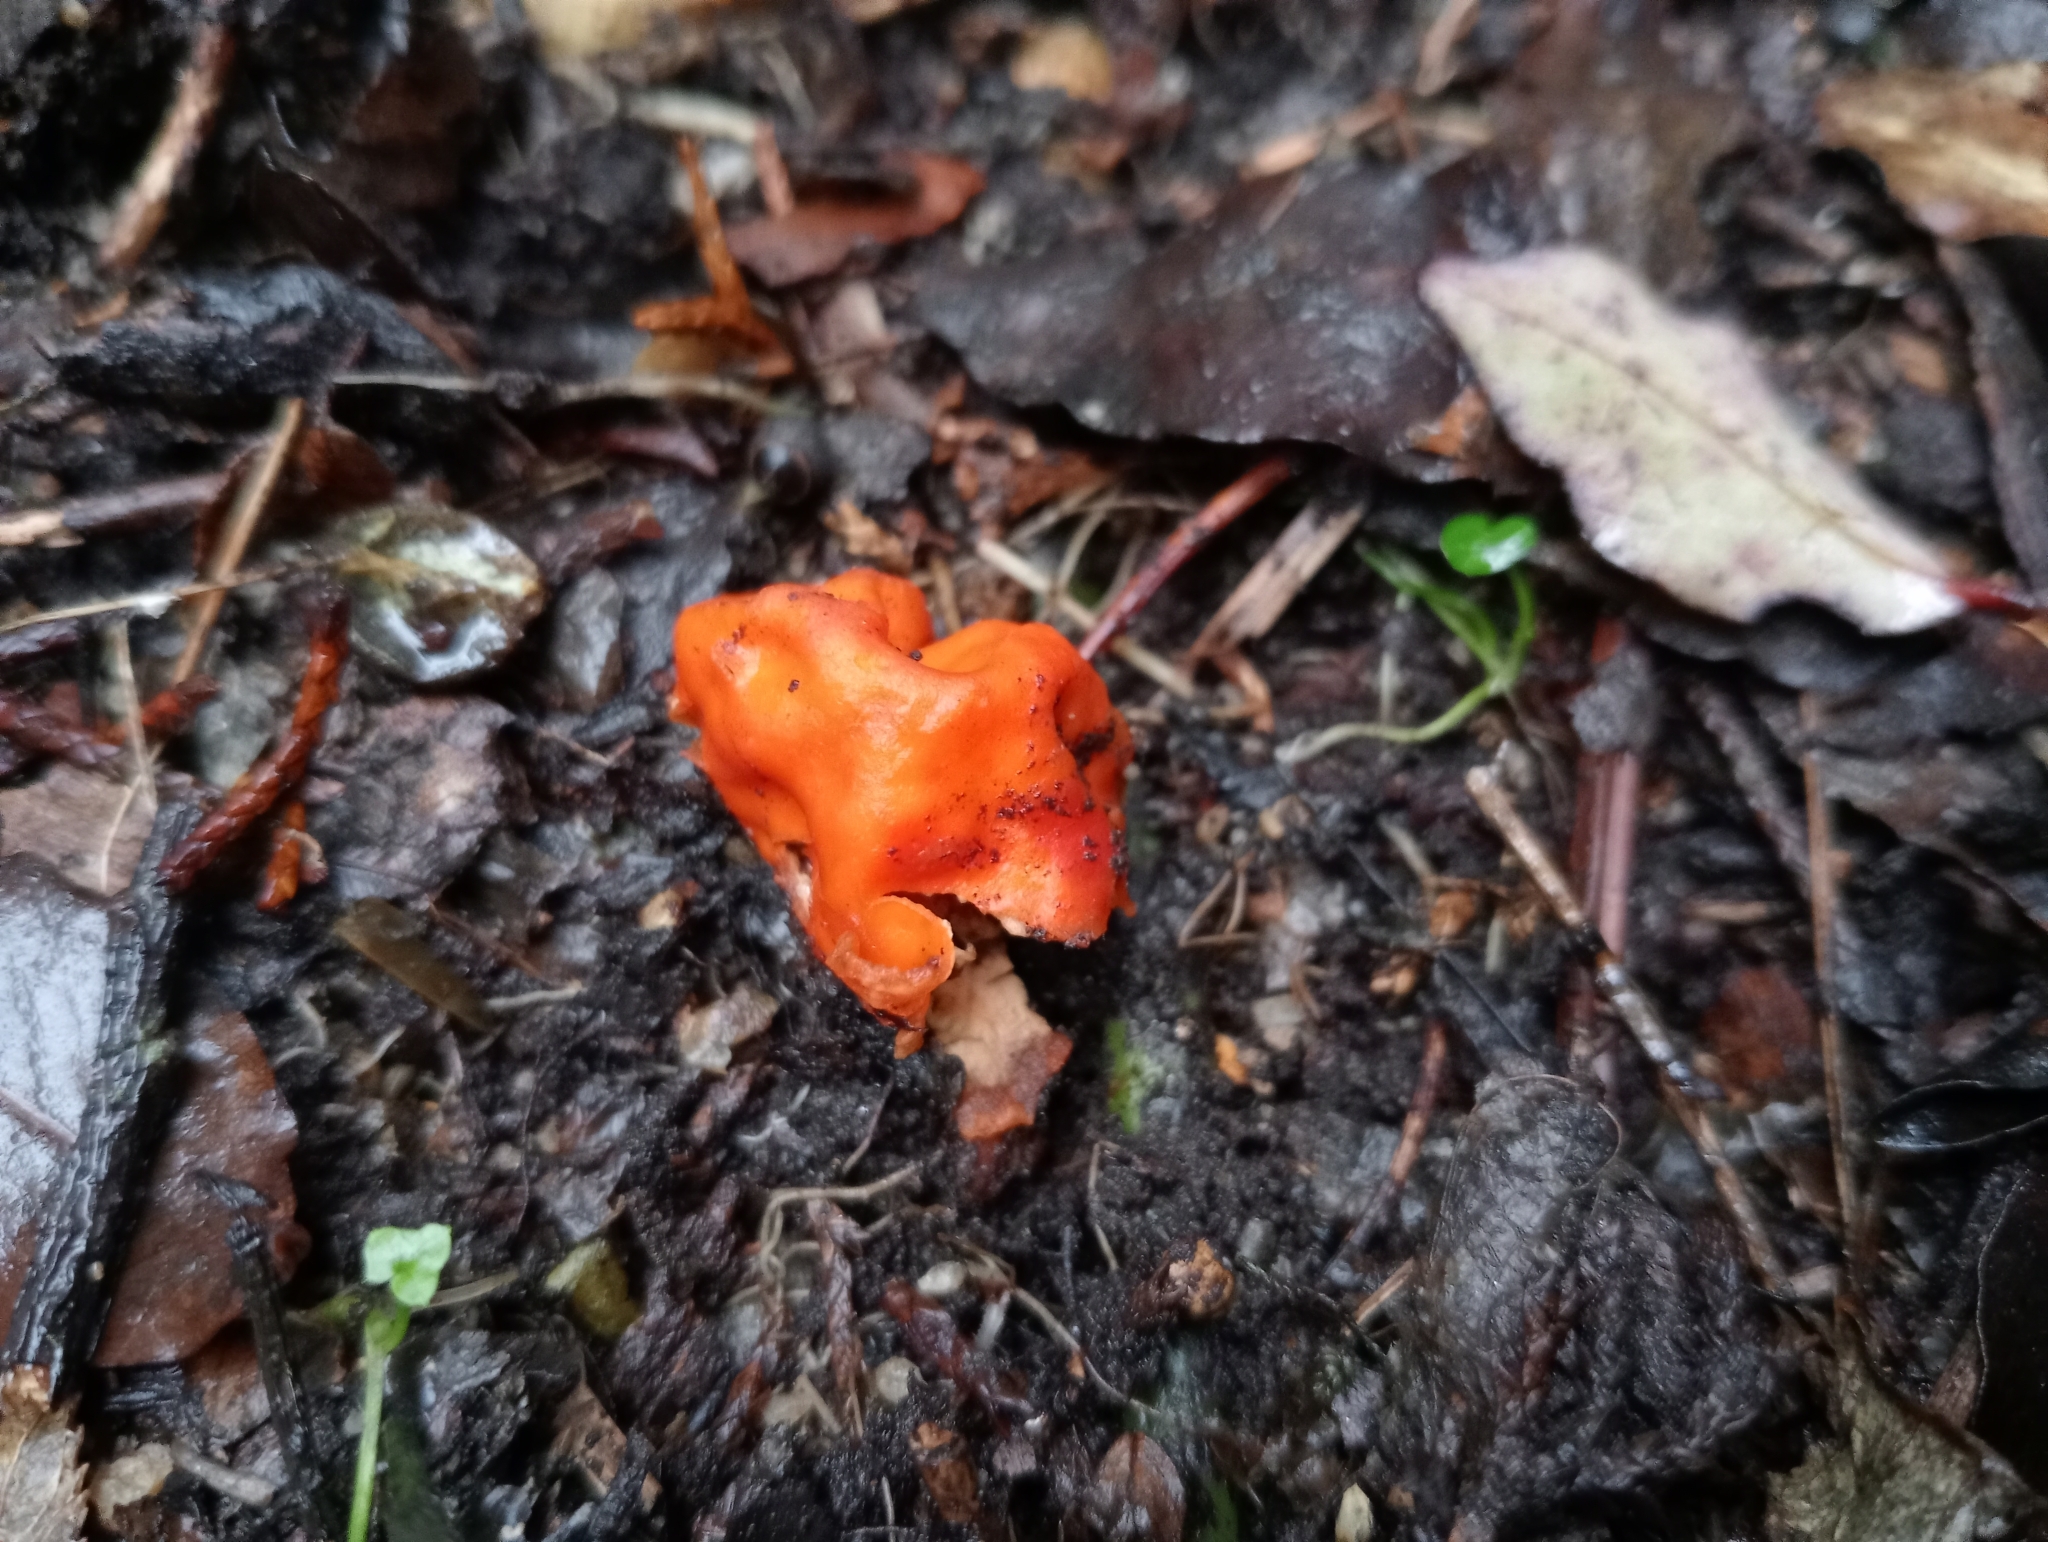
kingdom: Fungi
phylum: Ascomycota
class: Pezizomycetes
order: Pezizales
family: Pyronemataceae
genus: Paurocotylis
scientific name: Paurocotylis pila
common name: Scarlet berry truffle
